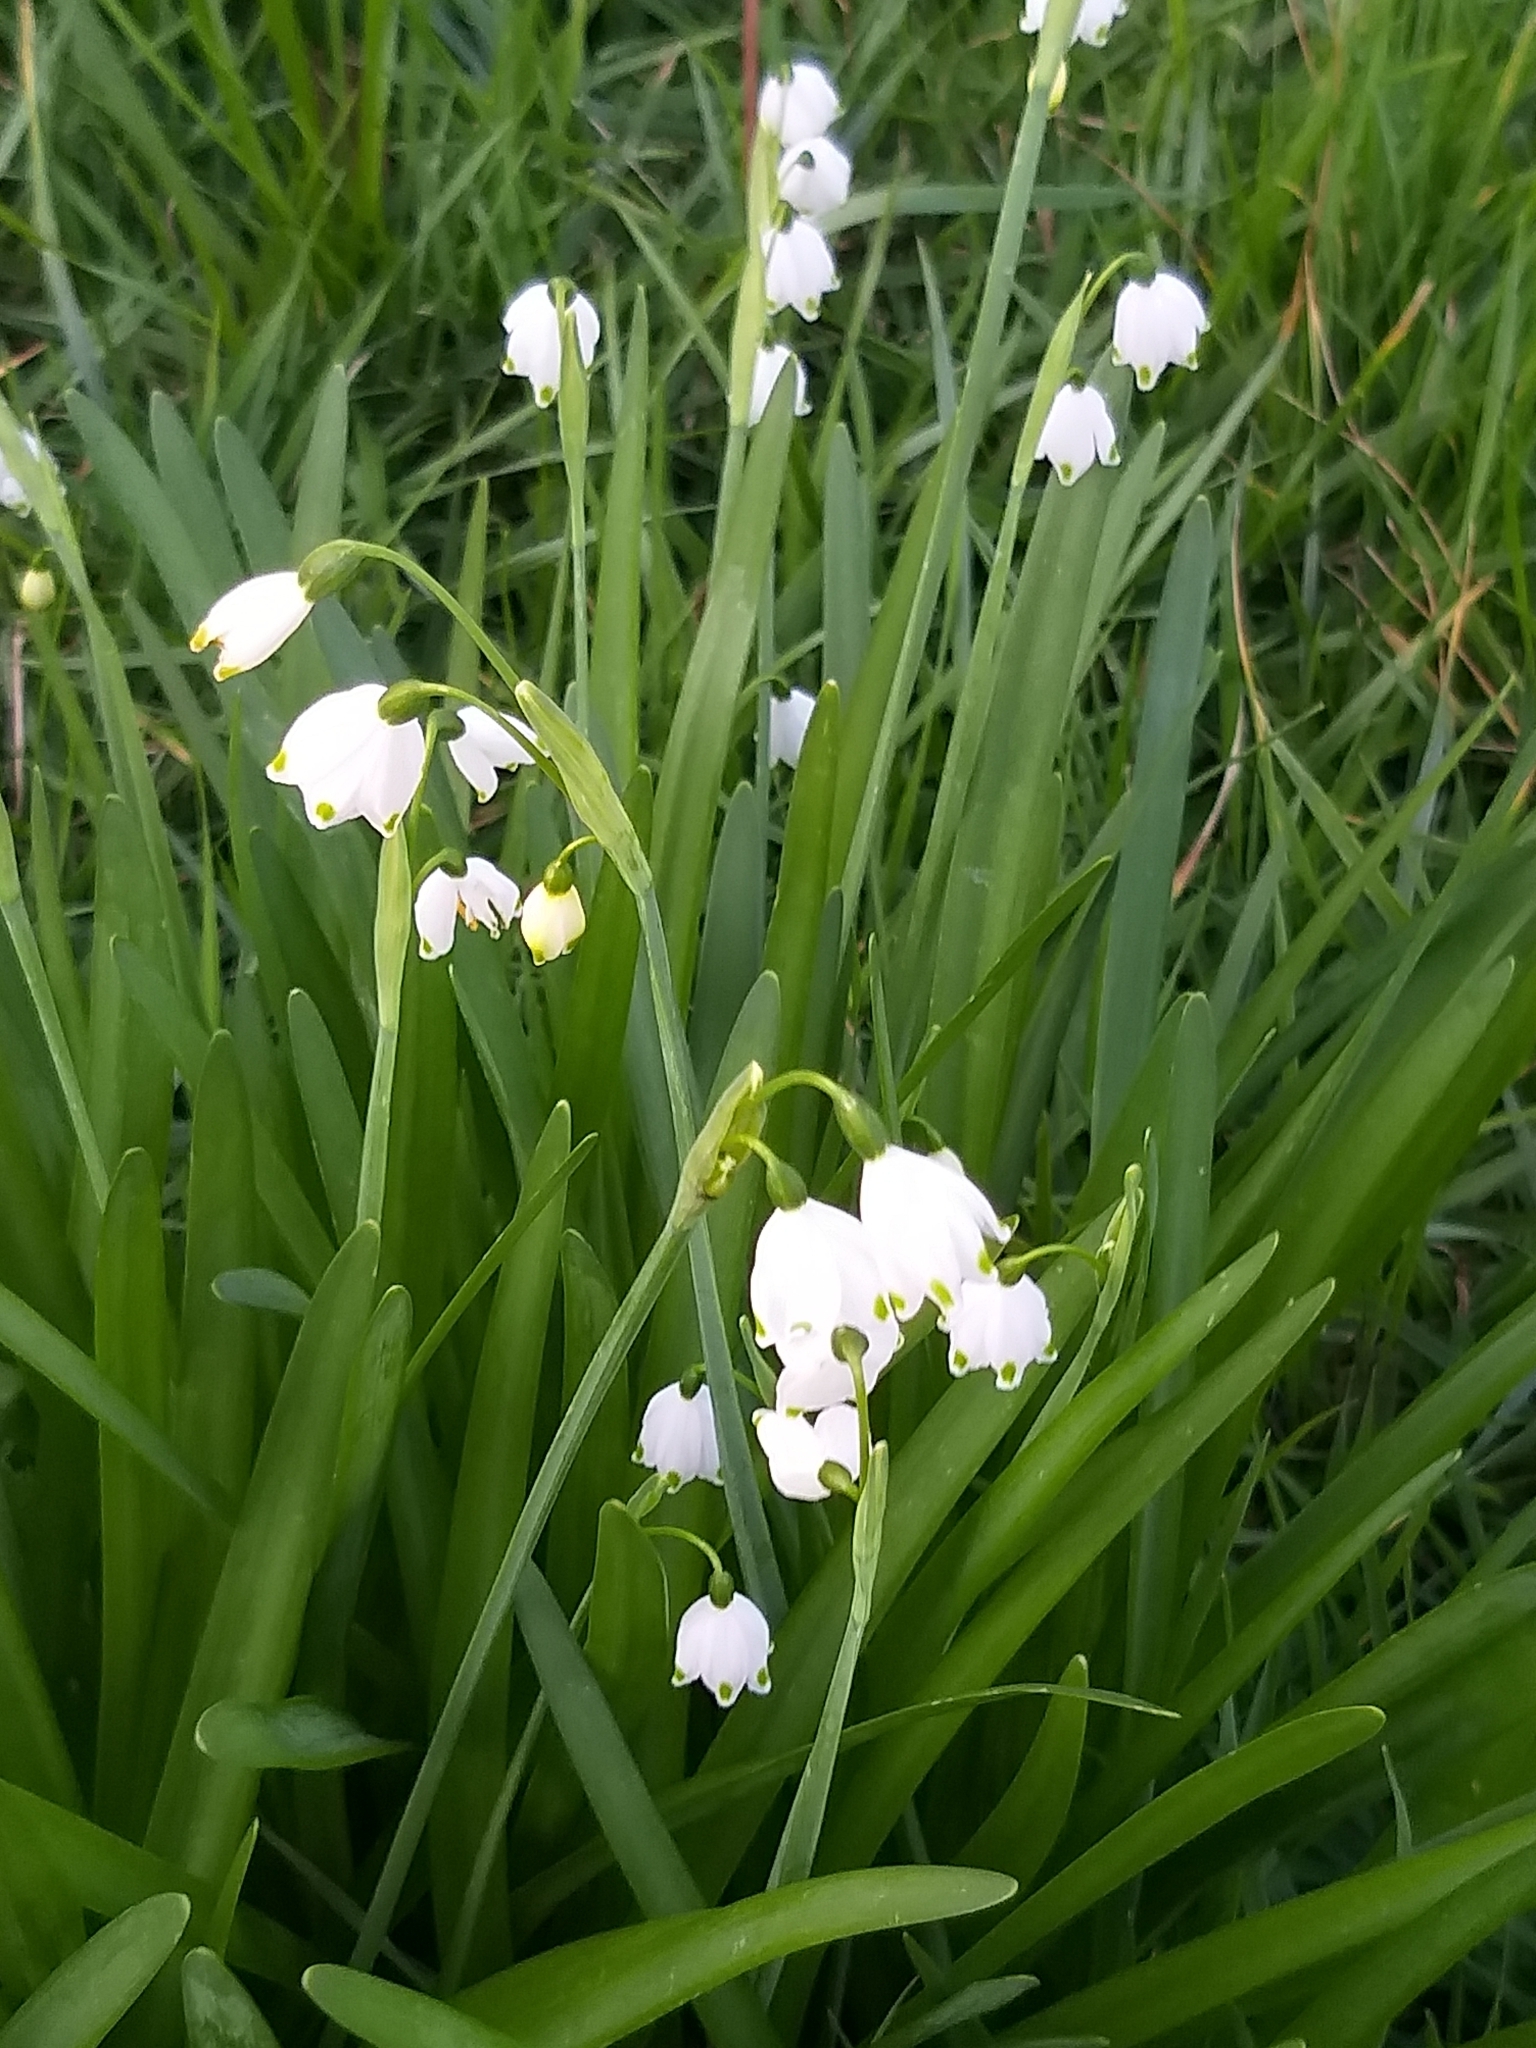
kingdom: Plantae
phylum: Tracheophyta
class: Liliopsida
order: Asparagales
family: Amaryllidaceae
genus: Leucojum
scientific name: Leucojum aestivum
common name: Summer snowflake
